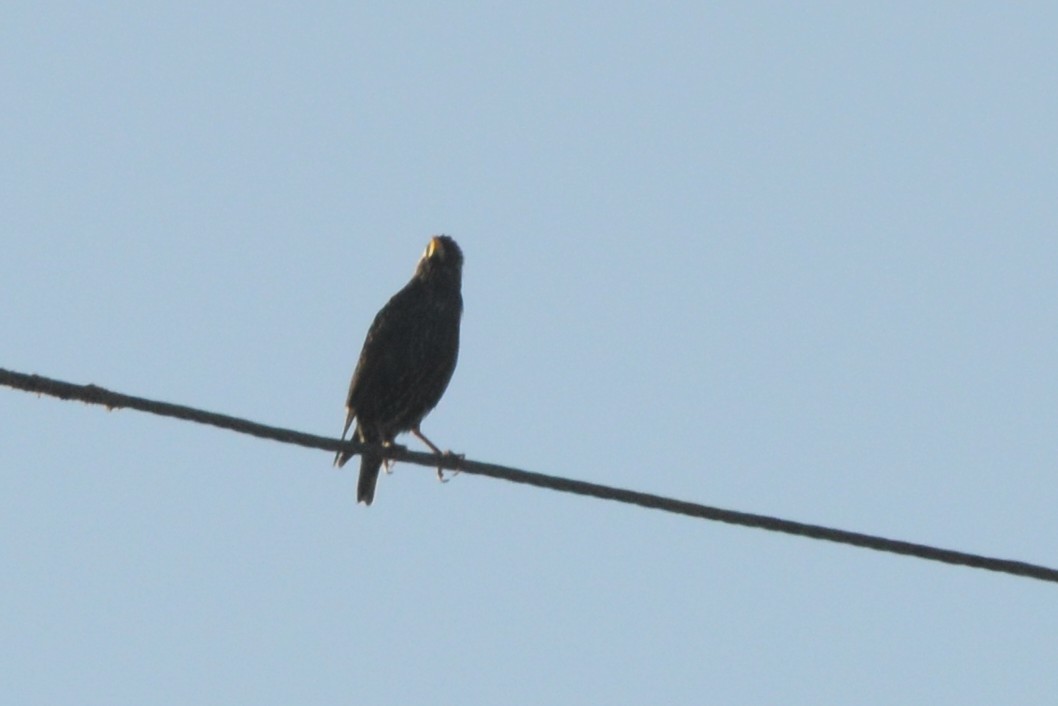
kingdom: Animalia
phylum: Chordata
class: Aves
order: Passeriformes
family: Sturnidae
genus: Sturnus
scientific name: Sturnus vulgaris
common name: Common starling
